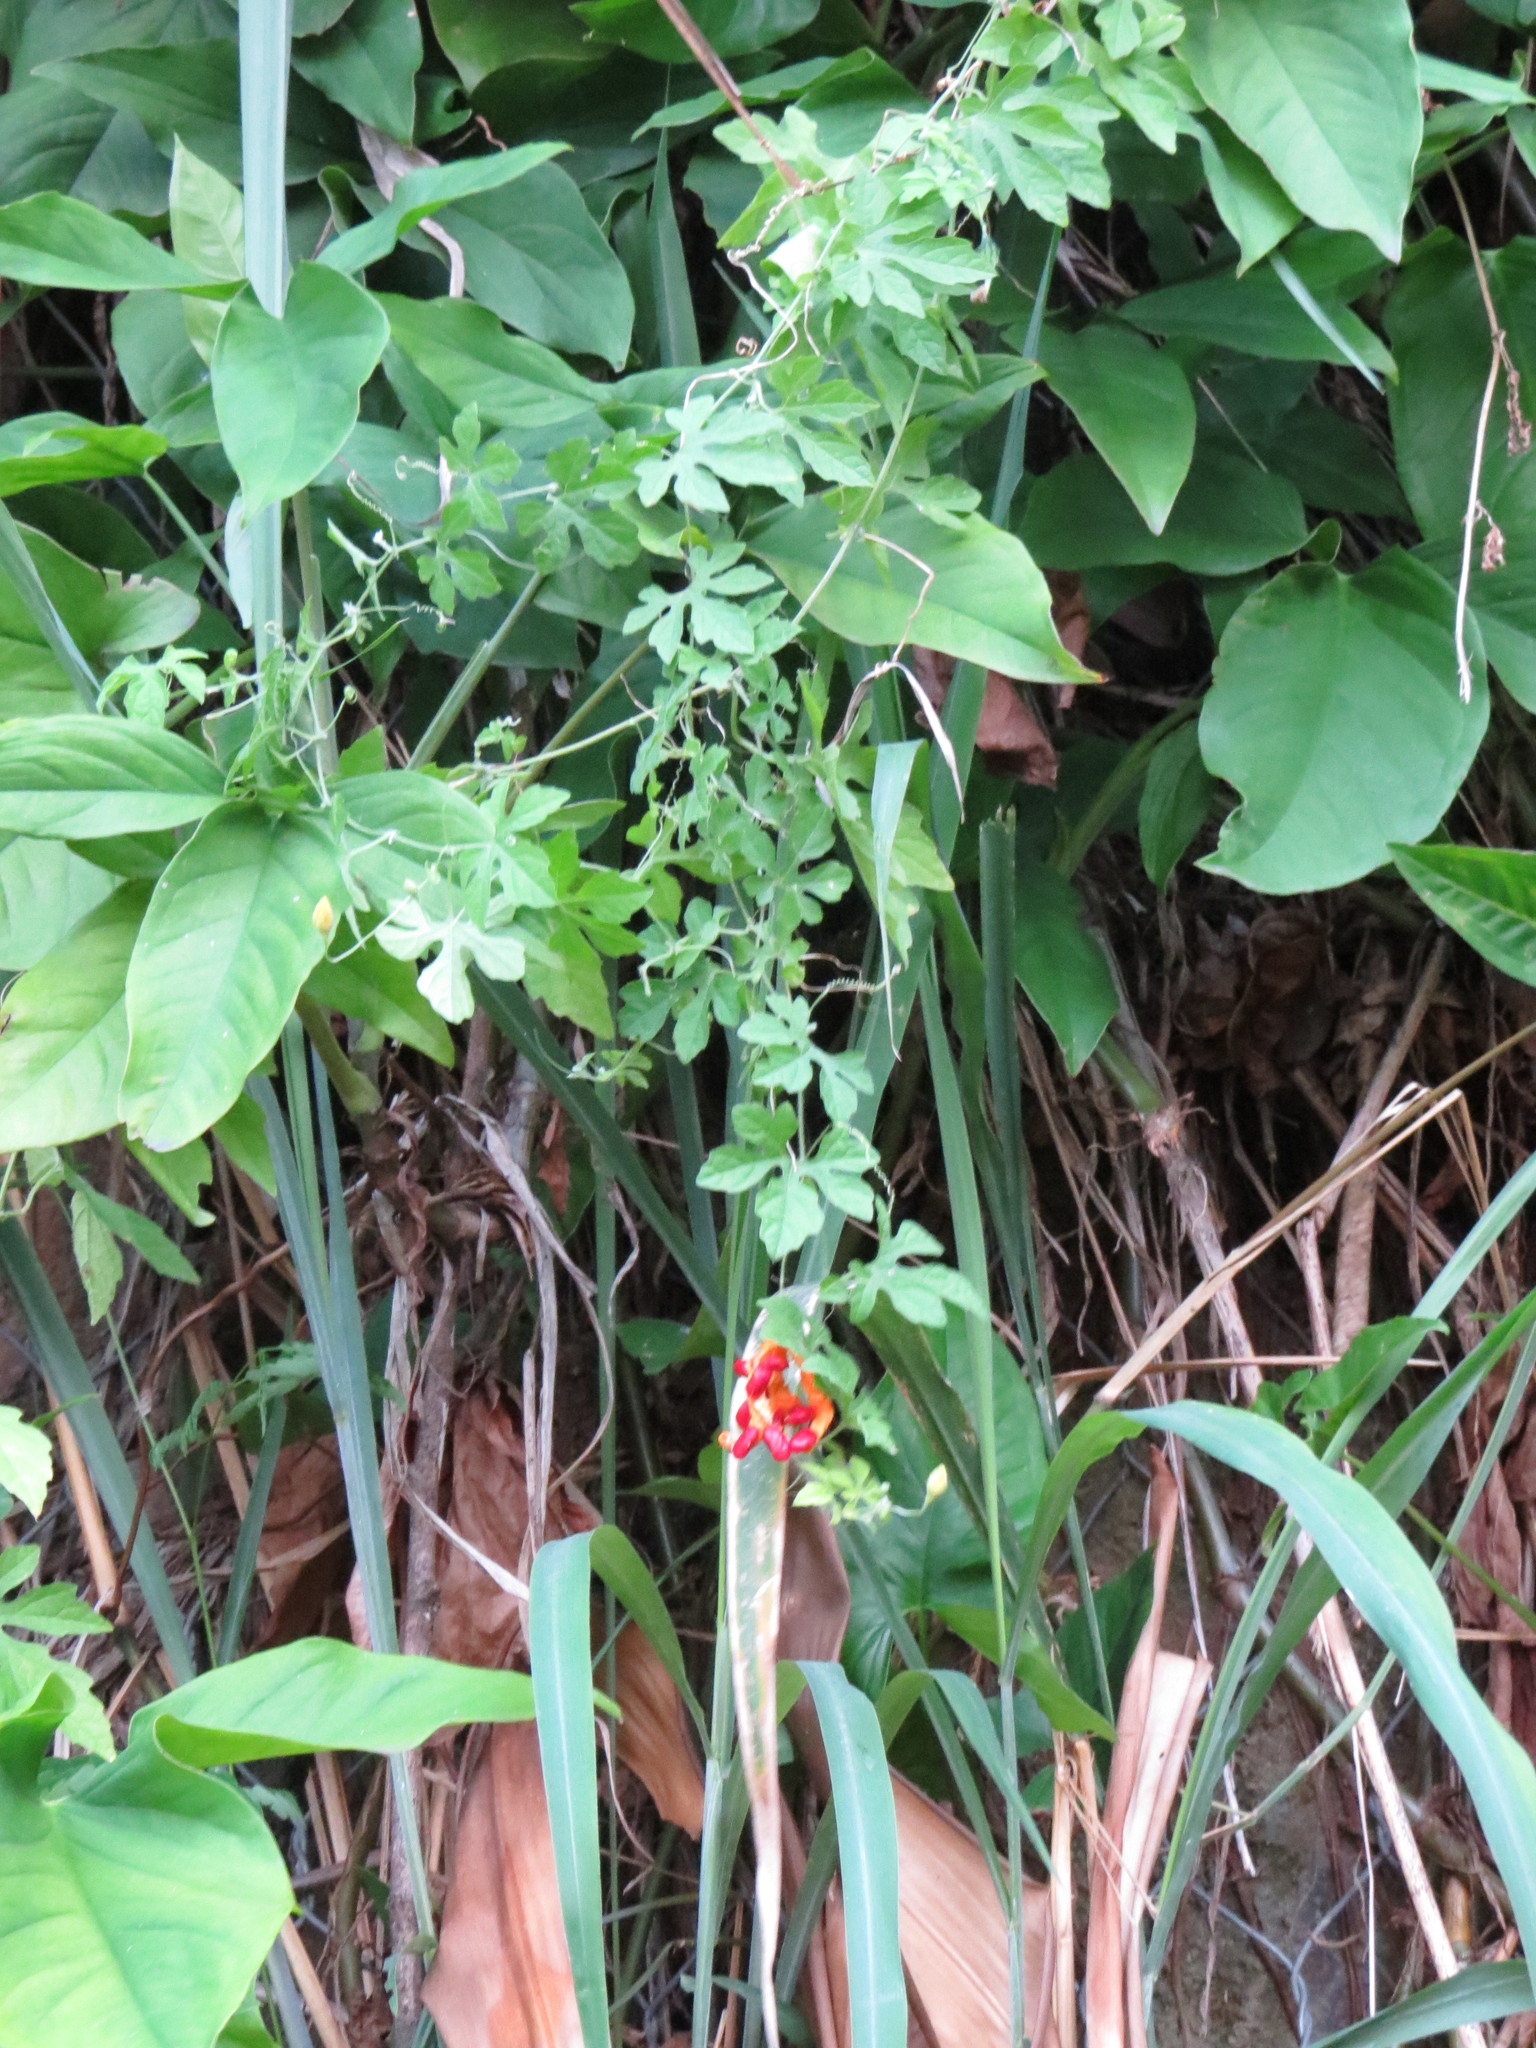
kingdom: Plantae
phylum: Tracheophyta
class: Magnoliopsida
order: Cucurbitales
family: Cucurbitaceae
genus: Momordica
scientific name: Momordica charantia
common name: Balsampear
